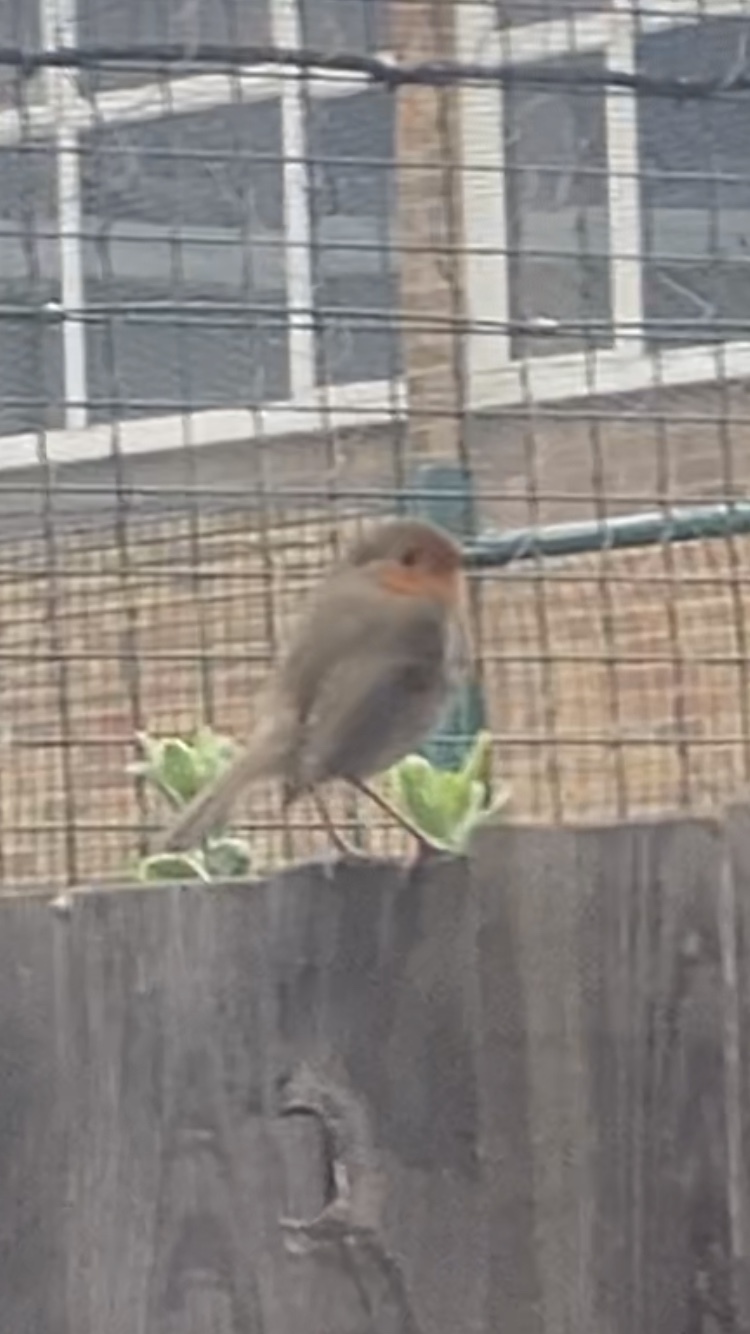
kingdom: Animalia
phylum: Chordata
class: Aves
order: Passeriformes
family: Muscicapidae
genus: Erithacus
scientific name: Erithacus rubecula
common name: European robin
